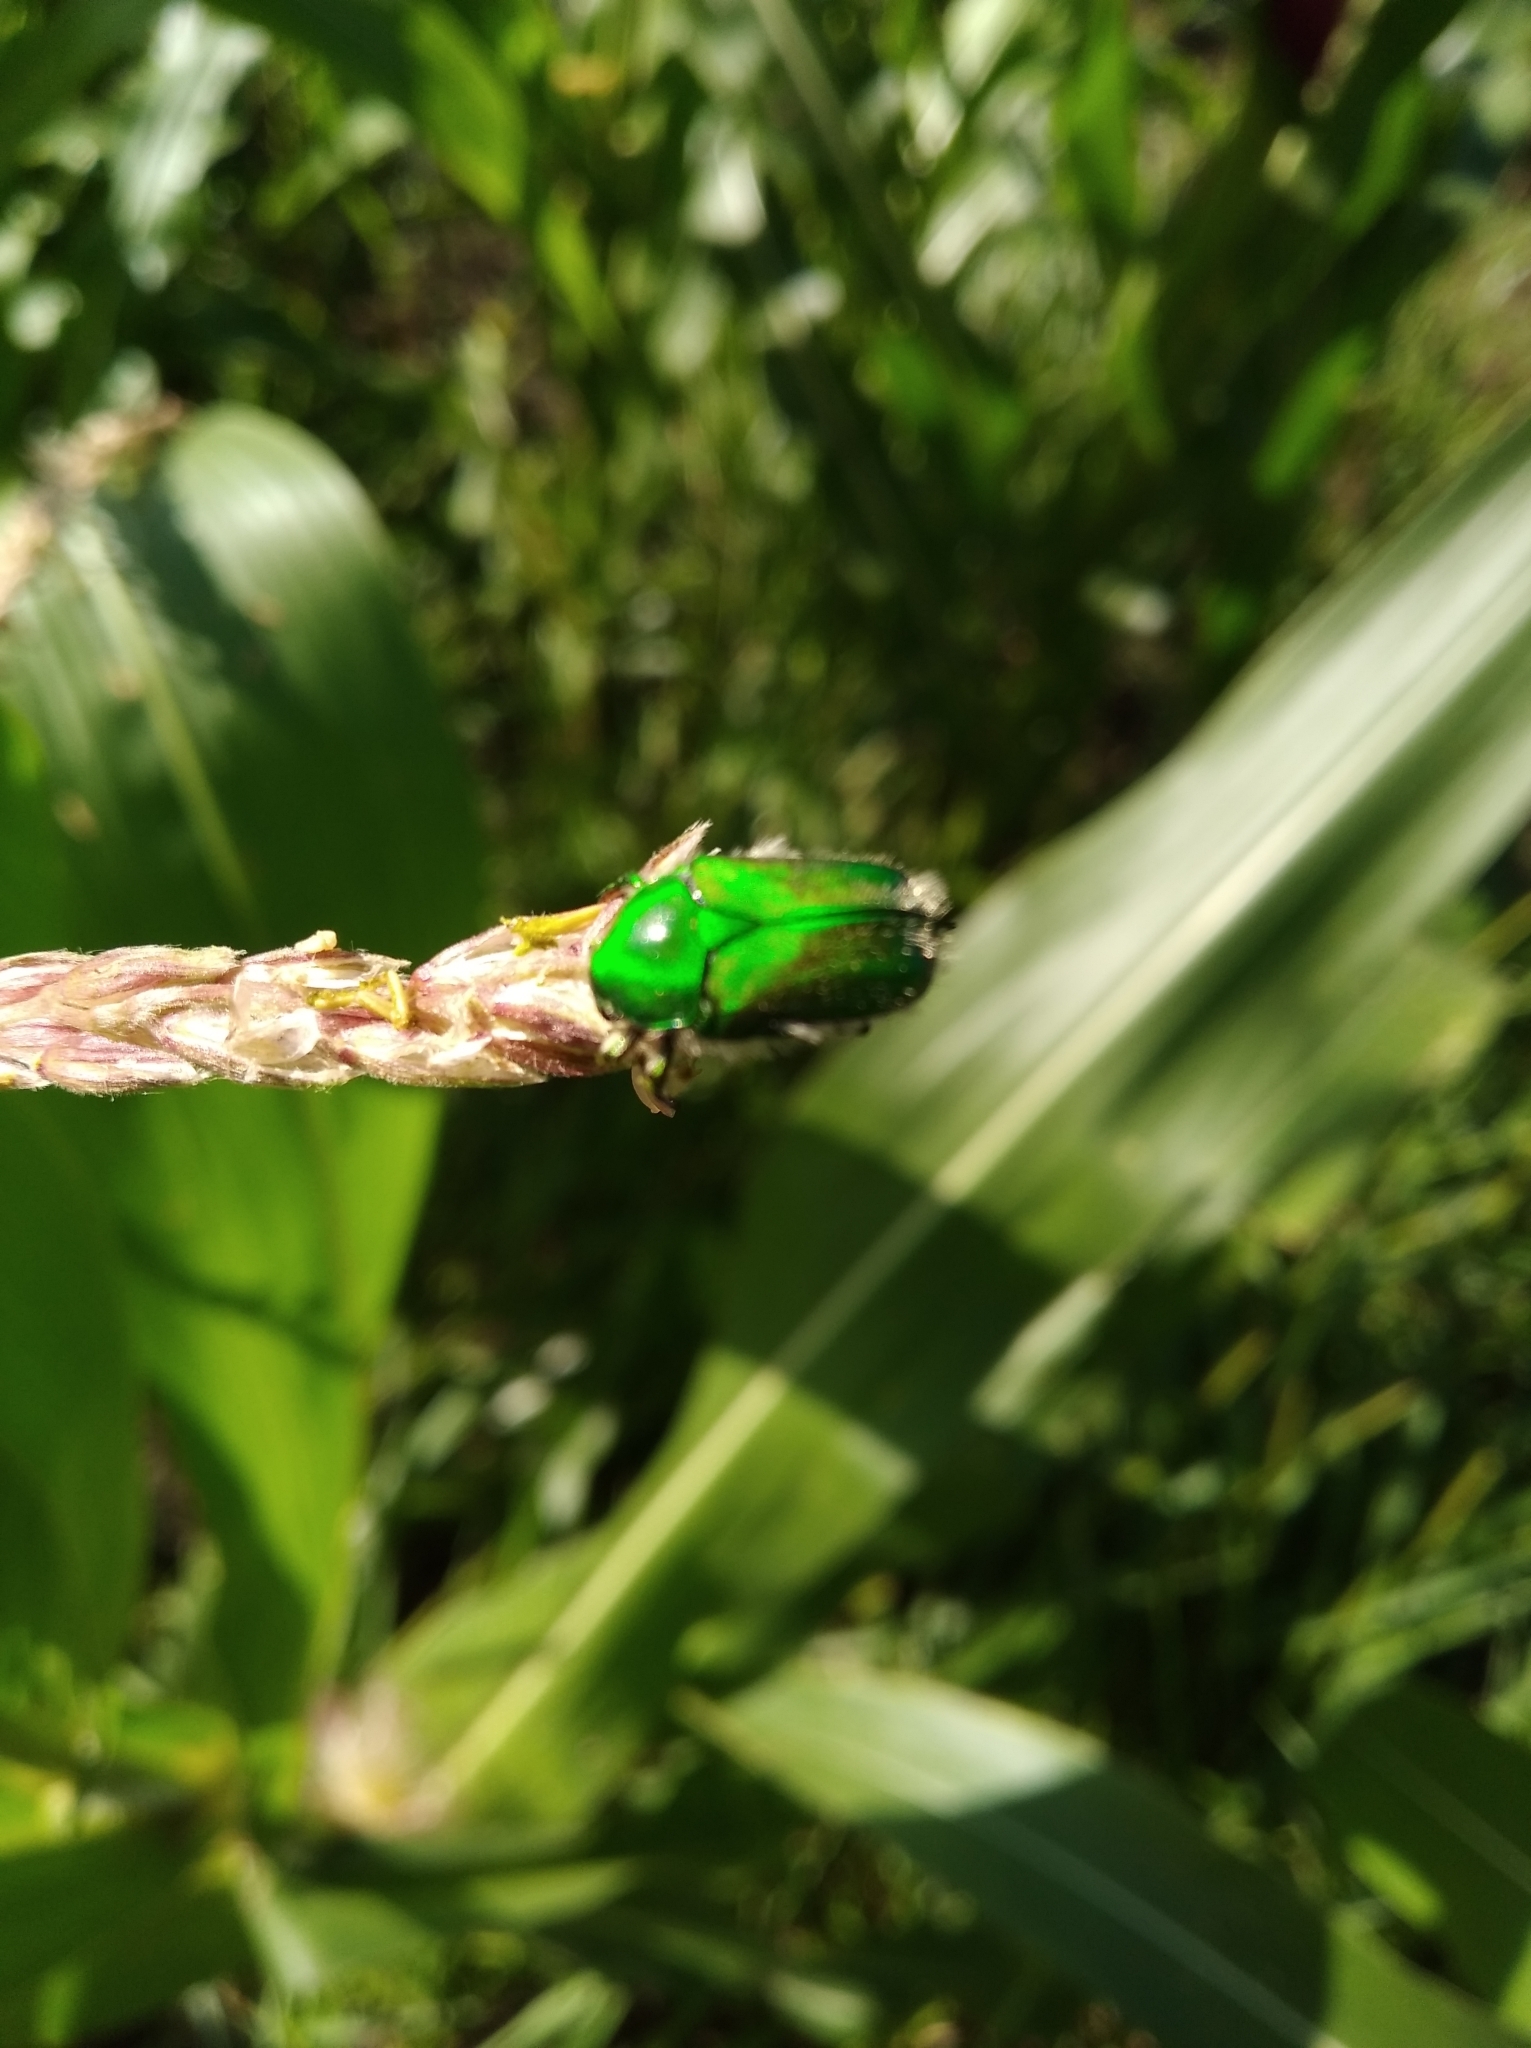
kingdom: Animalia
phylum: Arthropoda
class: Insecta
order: Coleoptera
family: Scarabaeidae
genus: Chiloloba
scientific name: Chiloloba acuta
